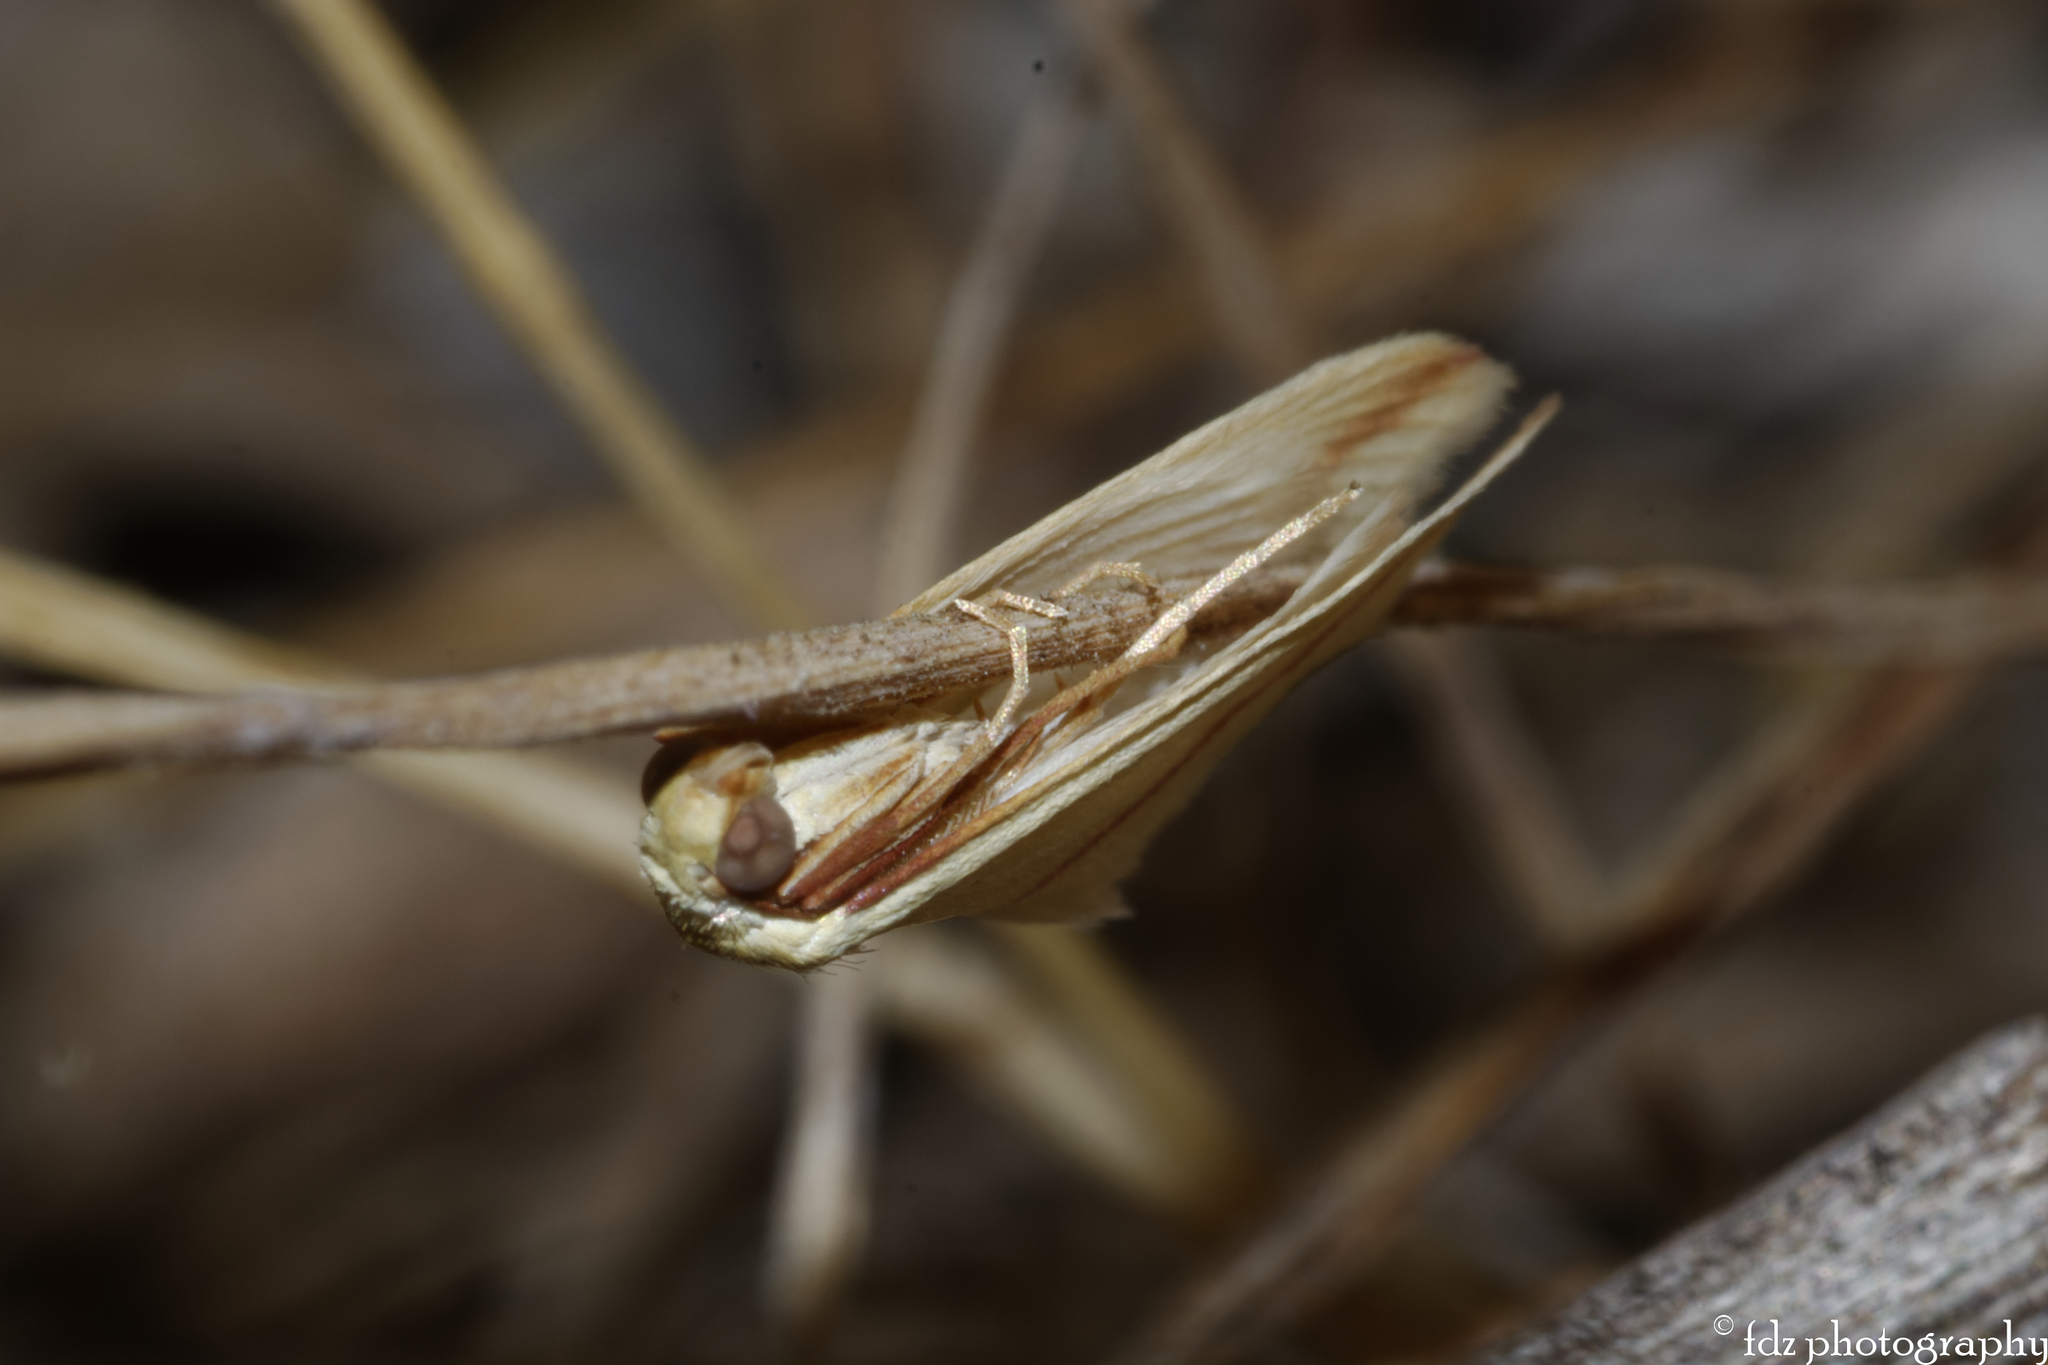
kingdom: Animalia
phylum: Arthropoda
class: Insecta
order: Lepidoptera
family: Geometridae
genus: Rhodometra
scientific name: Rhodometra sacraria
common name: Vestal
